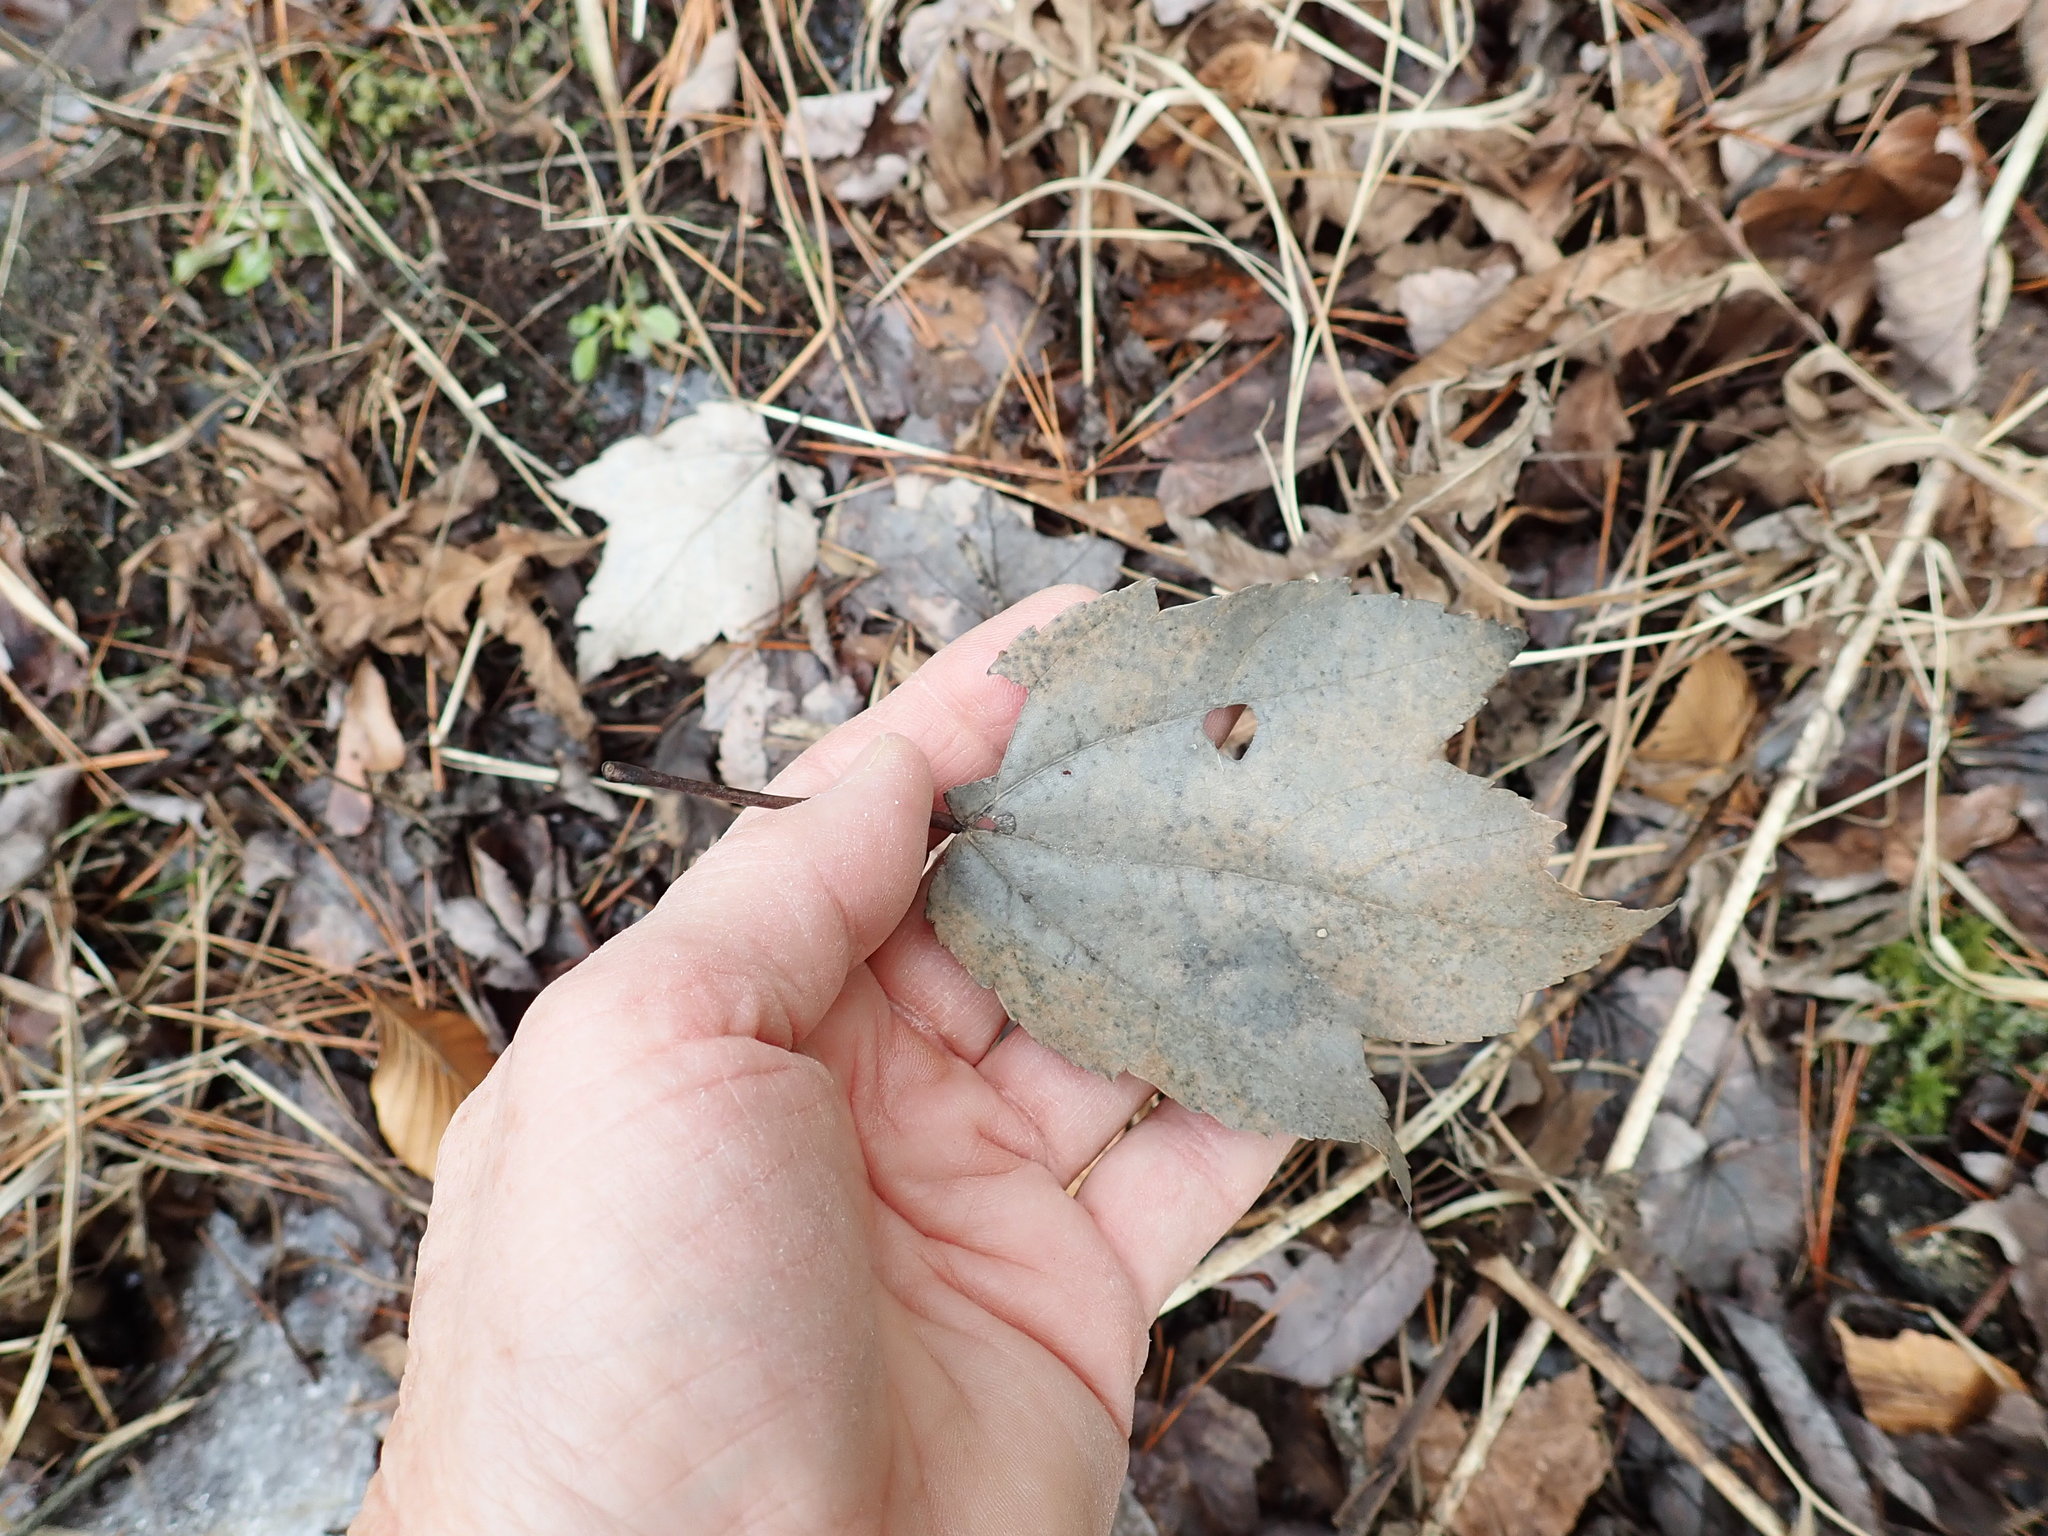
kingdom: Plantae
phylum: Tracheophyta
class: Magnoliopsida
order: Sapindales
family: Sapindaceae
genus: Acer
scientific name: Acer rubrum
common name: Red maple
